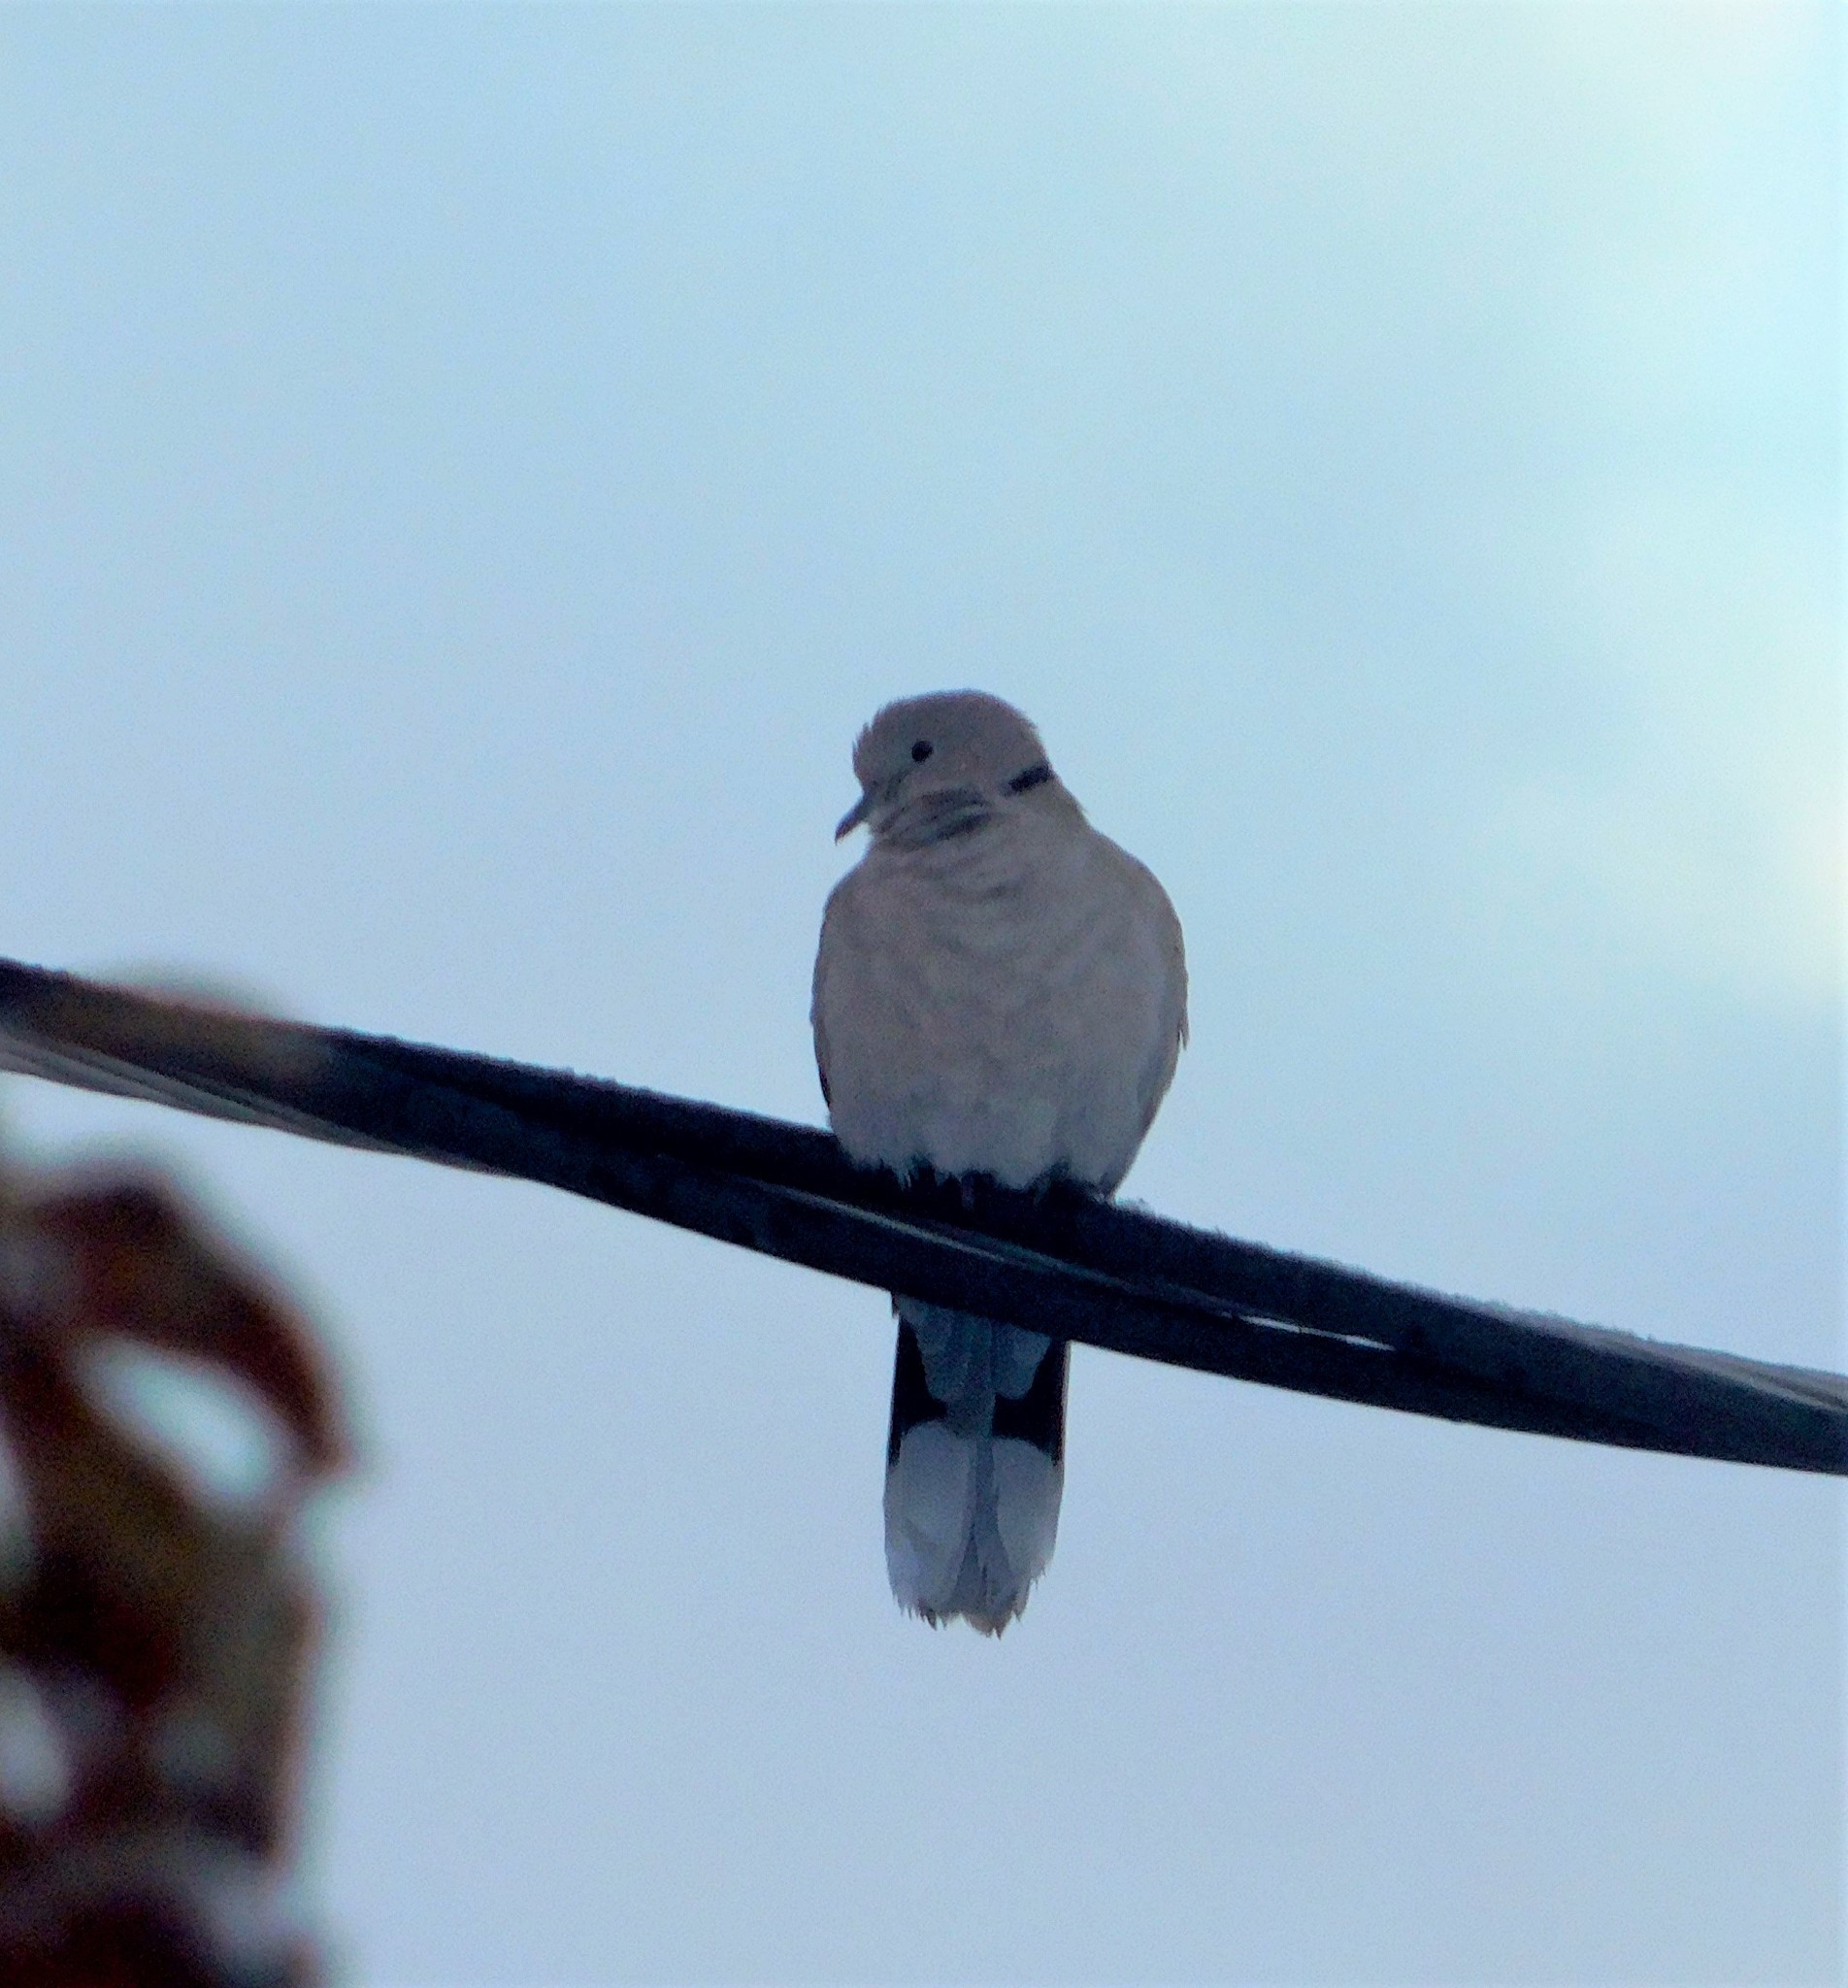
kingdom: Animalia
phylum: Chordata
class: Aves
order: Columbiformes
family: Columbidae
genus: Streptopelia
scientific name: Streptopelia decaocto
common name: Eurasian collared dove
